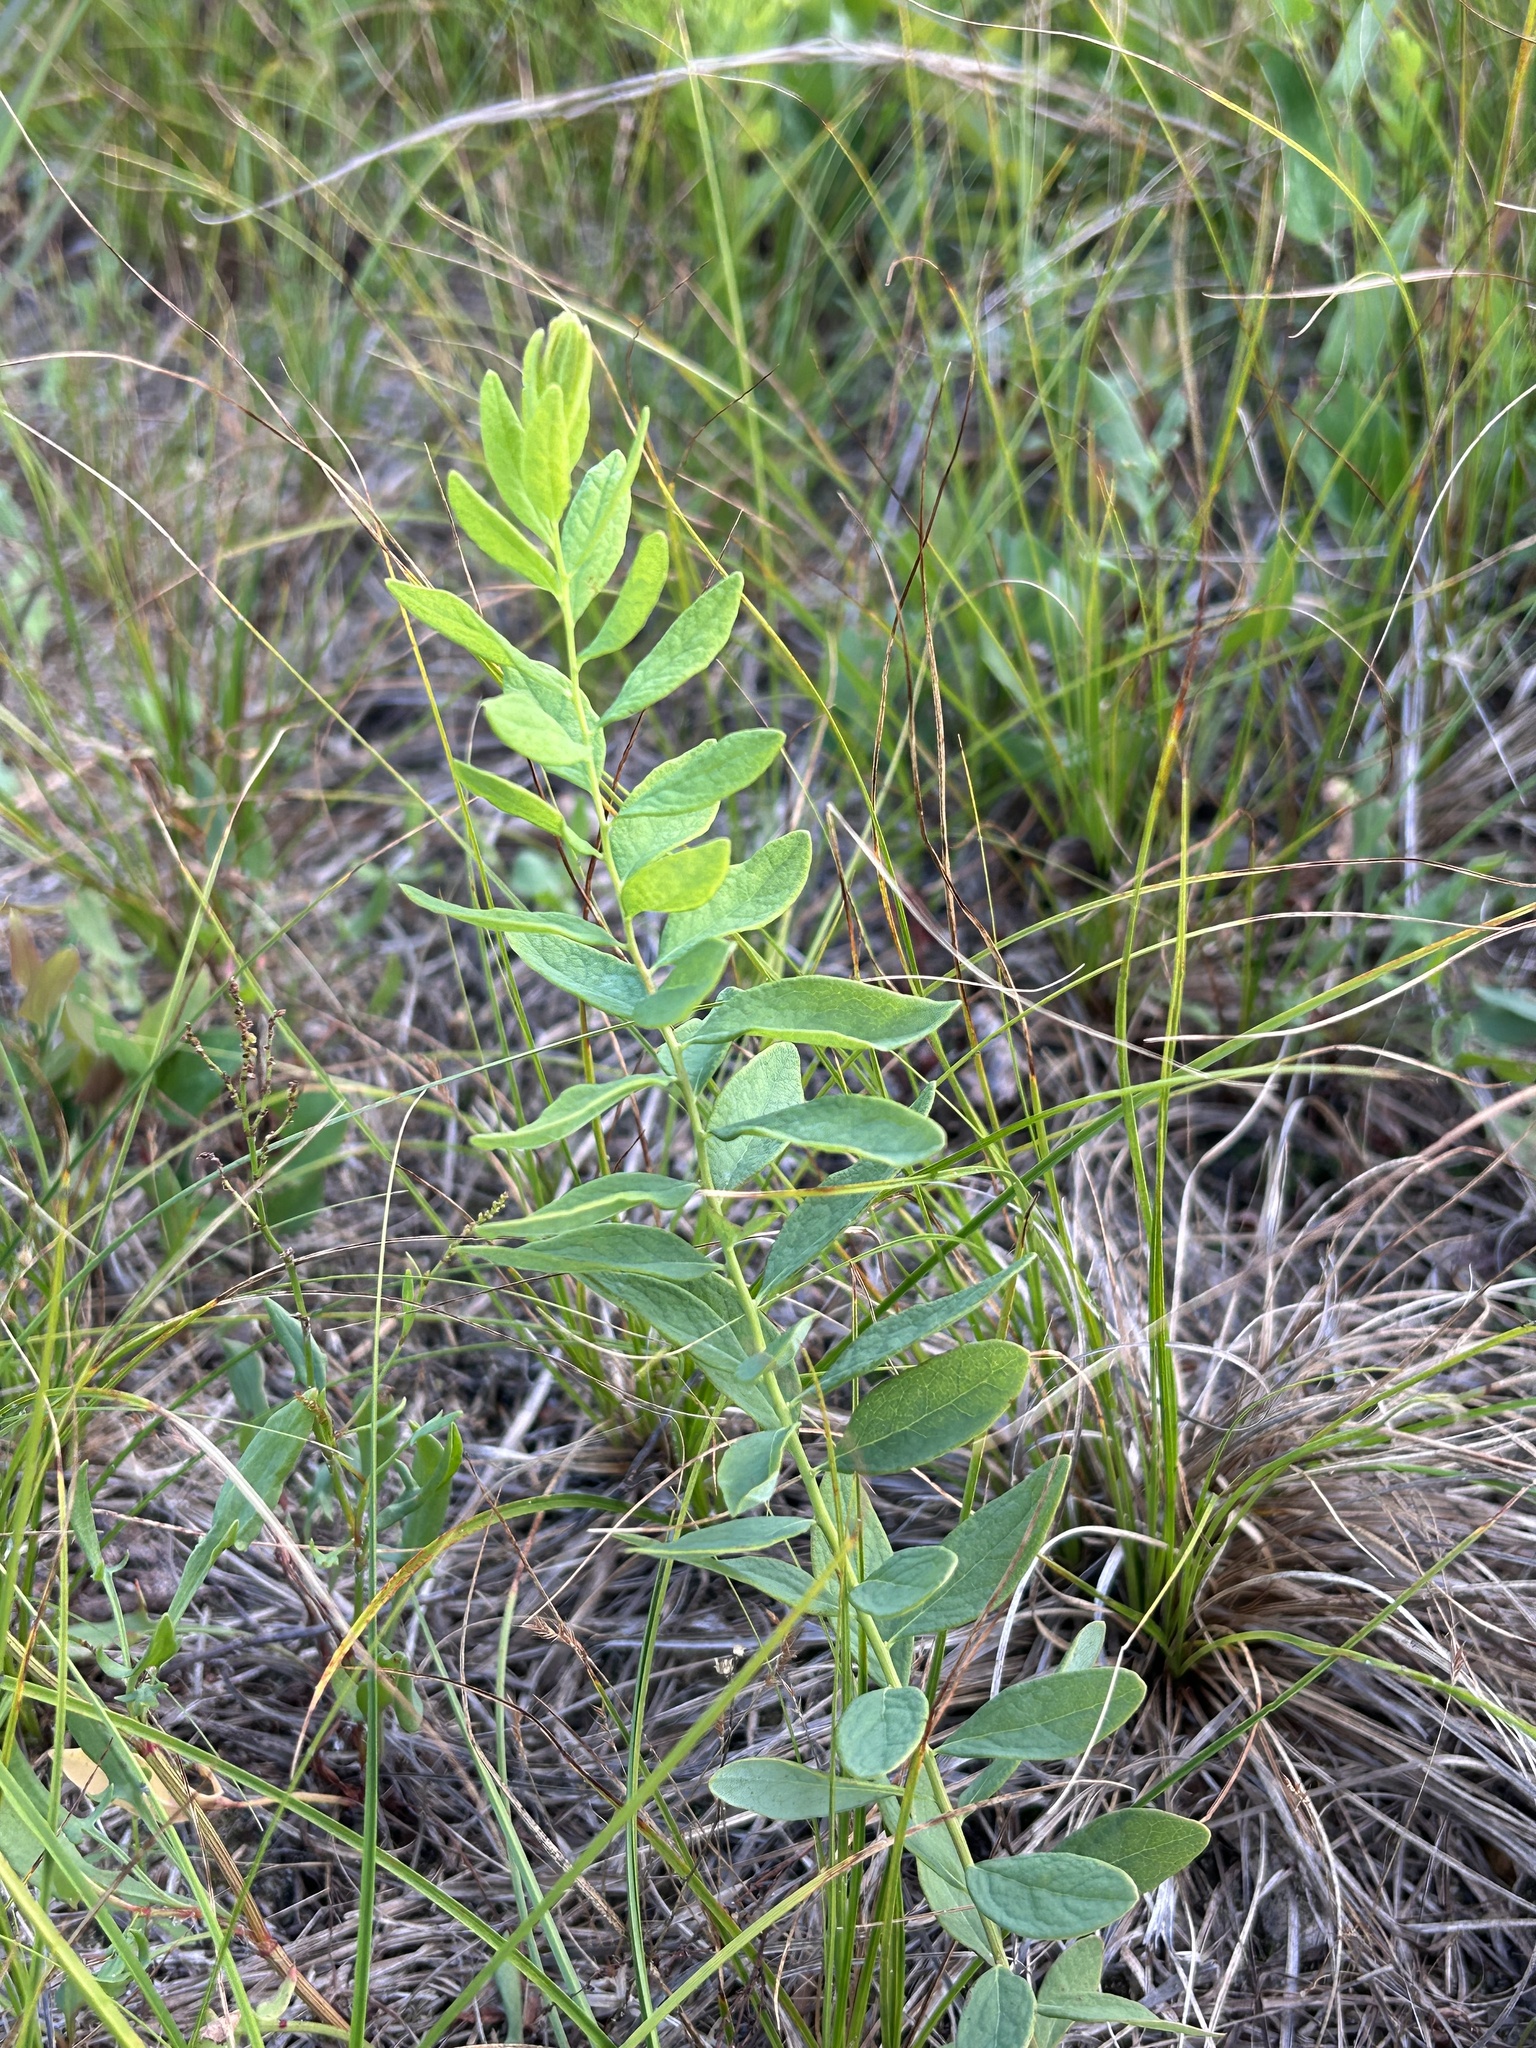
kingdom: Plantae
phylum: Tracheophyta
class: Magnoliopsida
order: Santalales
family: Comandraceae
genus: Comandra
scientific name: Comandra umbellata
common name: Bastard toadflax
